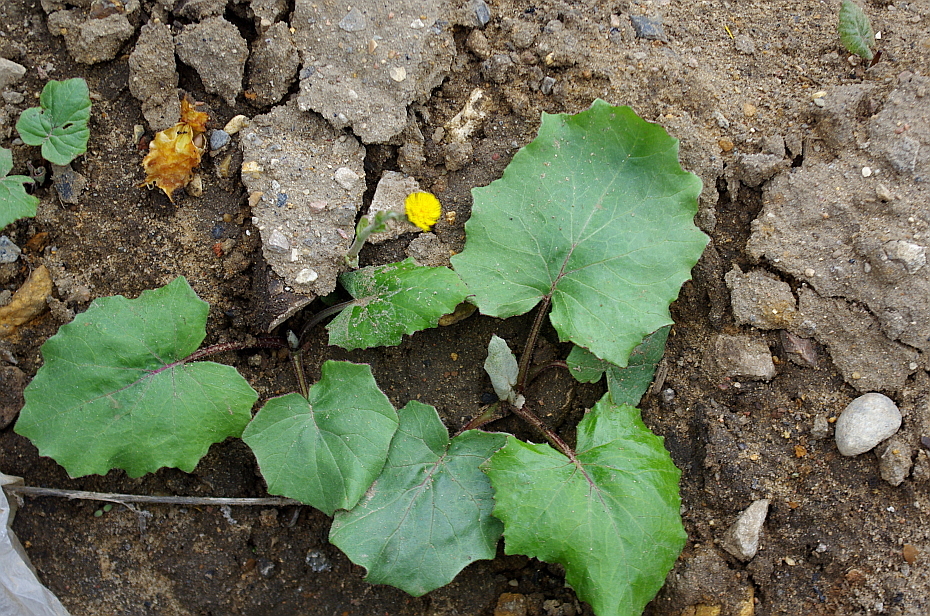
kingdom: Plantae
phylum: Tracheophyta
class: Magnoliopsida
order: Asterales
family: Asteraceae
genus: Tussilago
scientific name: Tussilago farfara
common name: Coltsfoot
